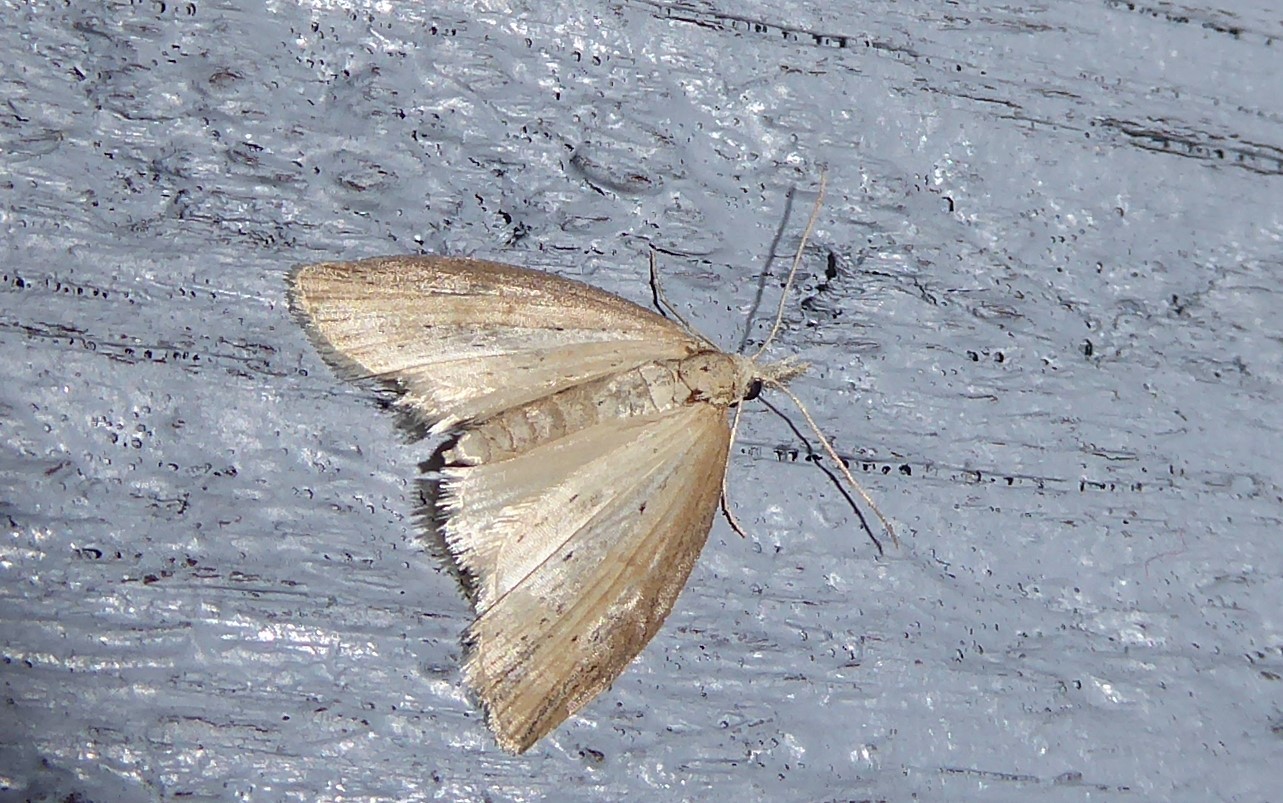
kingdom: Animalia
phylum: Arthropoda
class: Insecta
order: Lepidoptera
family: Geometridae
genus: Microdes
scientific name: Microdes epicryptis
